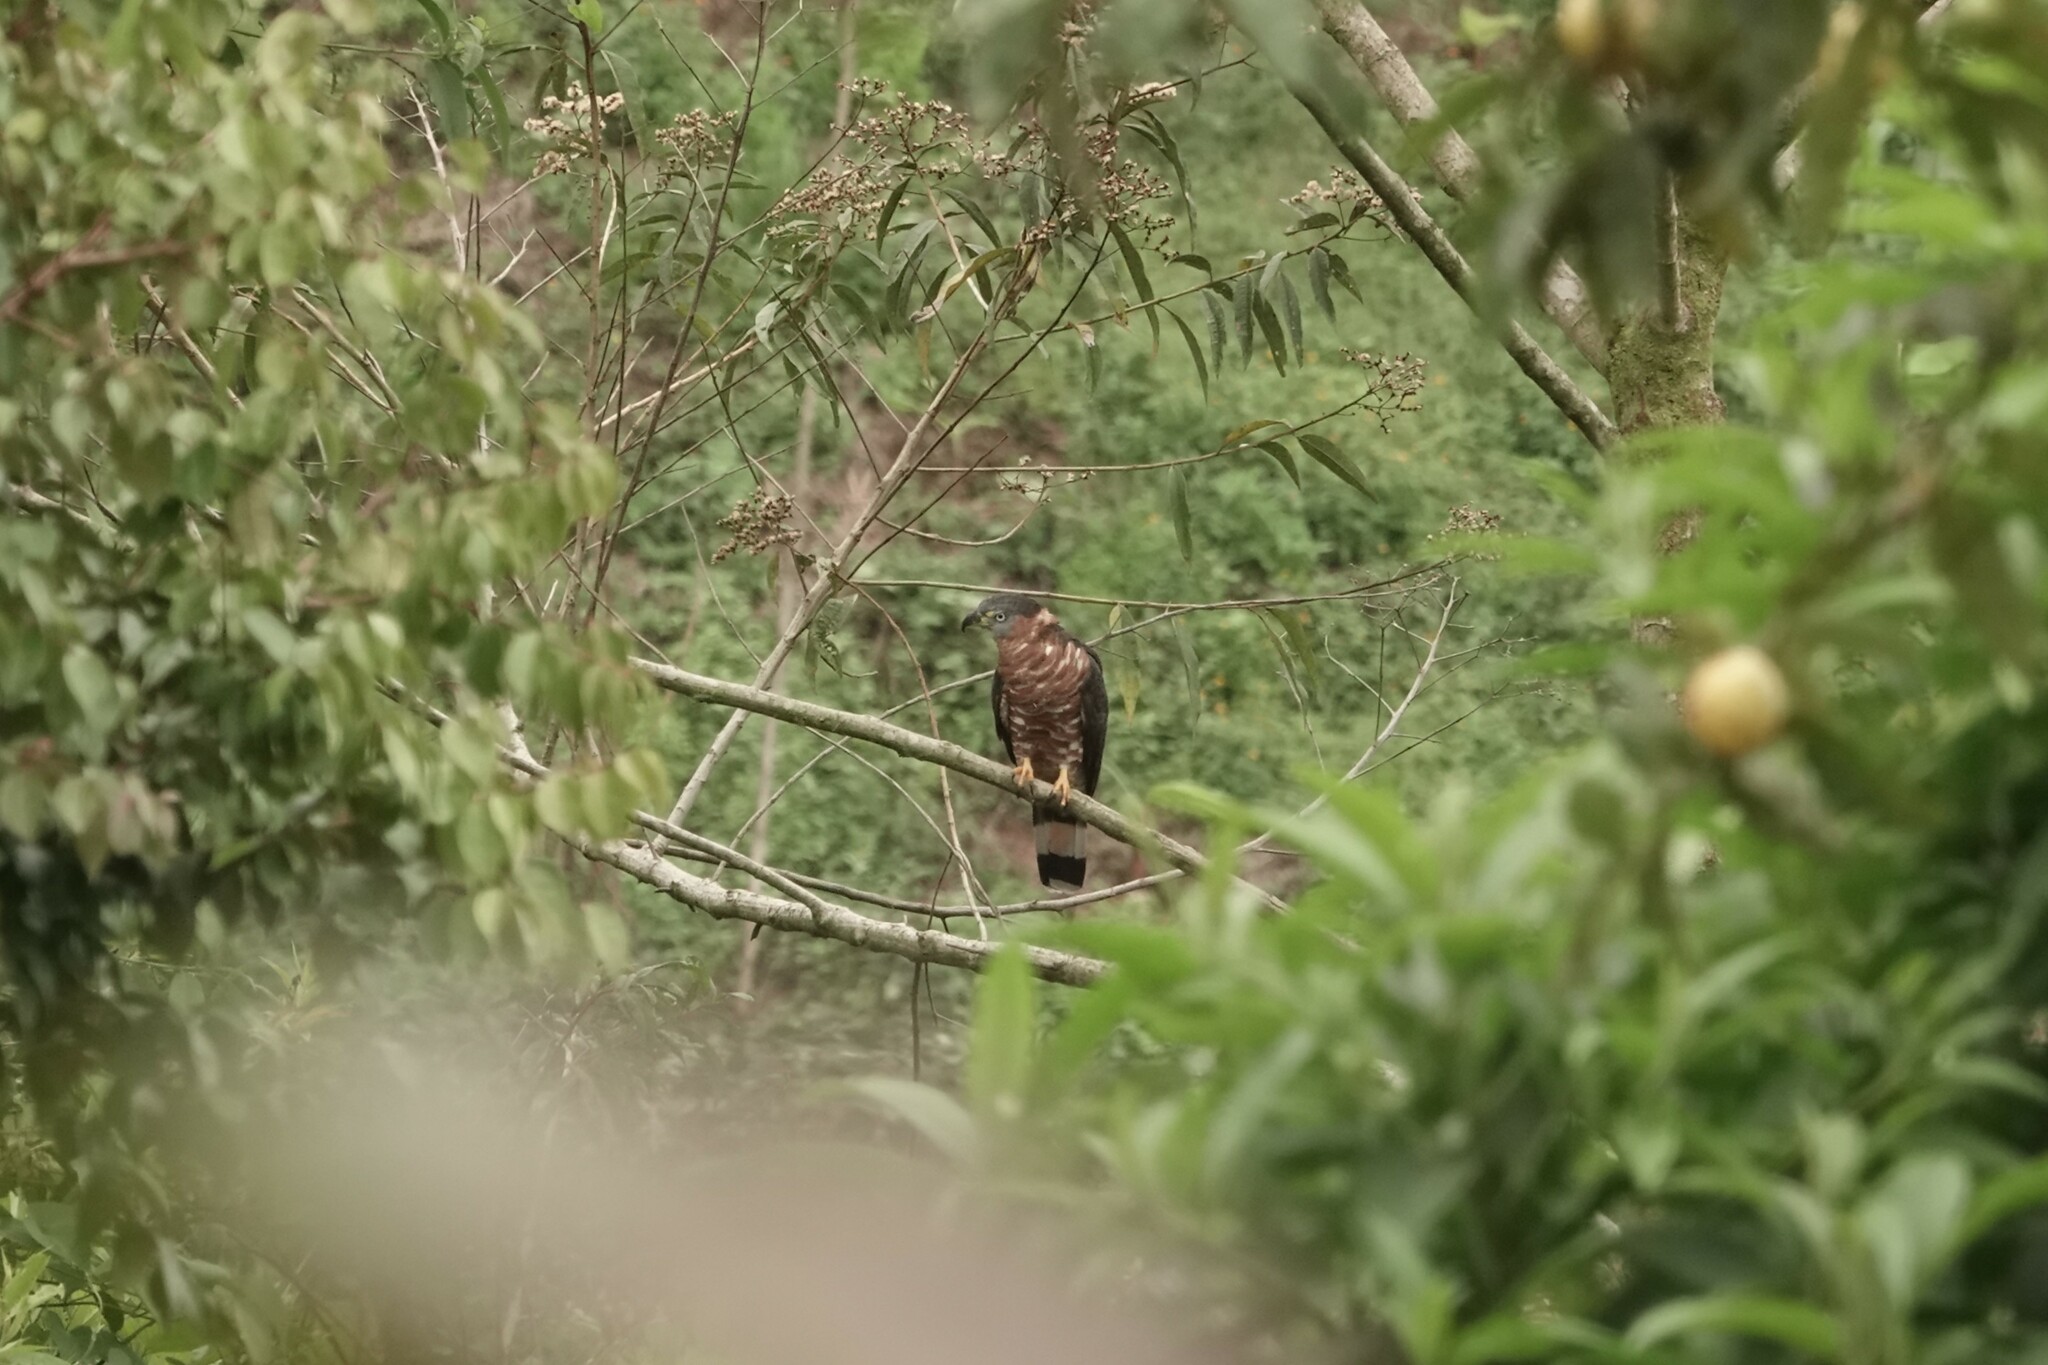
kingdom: Animalia
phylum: Chordata
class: Aves
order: Accipitriformes
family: Accipitridae
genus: Chondrohierax
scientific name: Chondrohierax uncinatus
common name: Hook-billed kite
